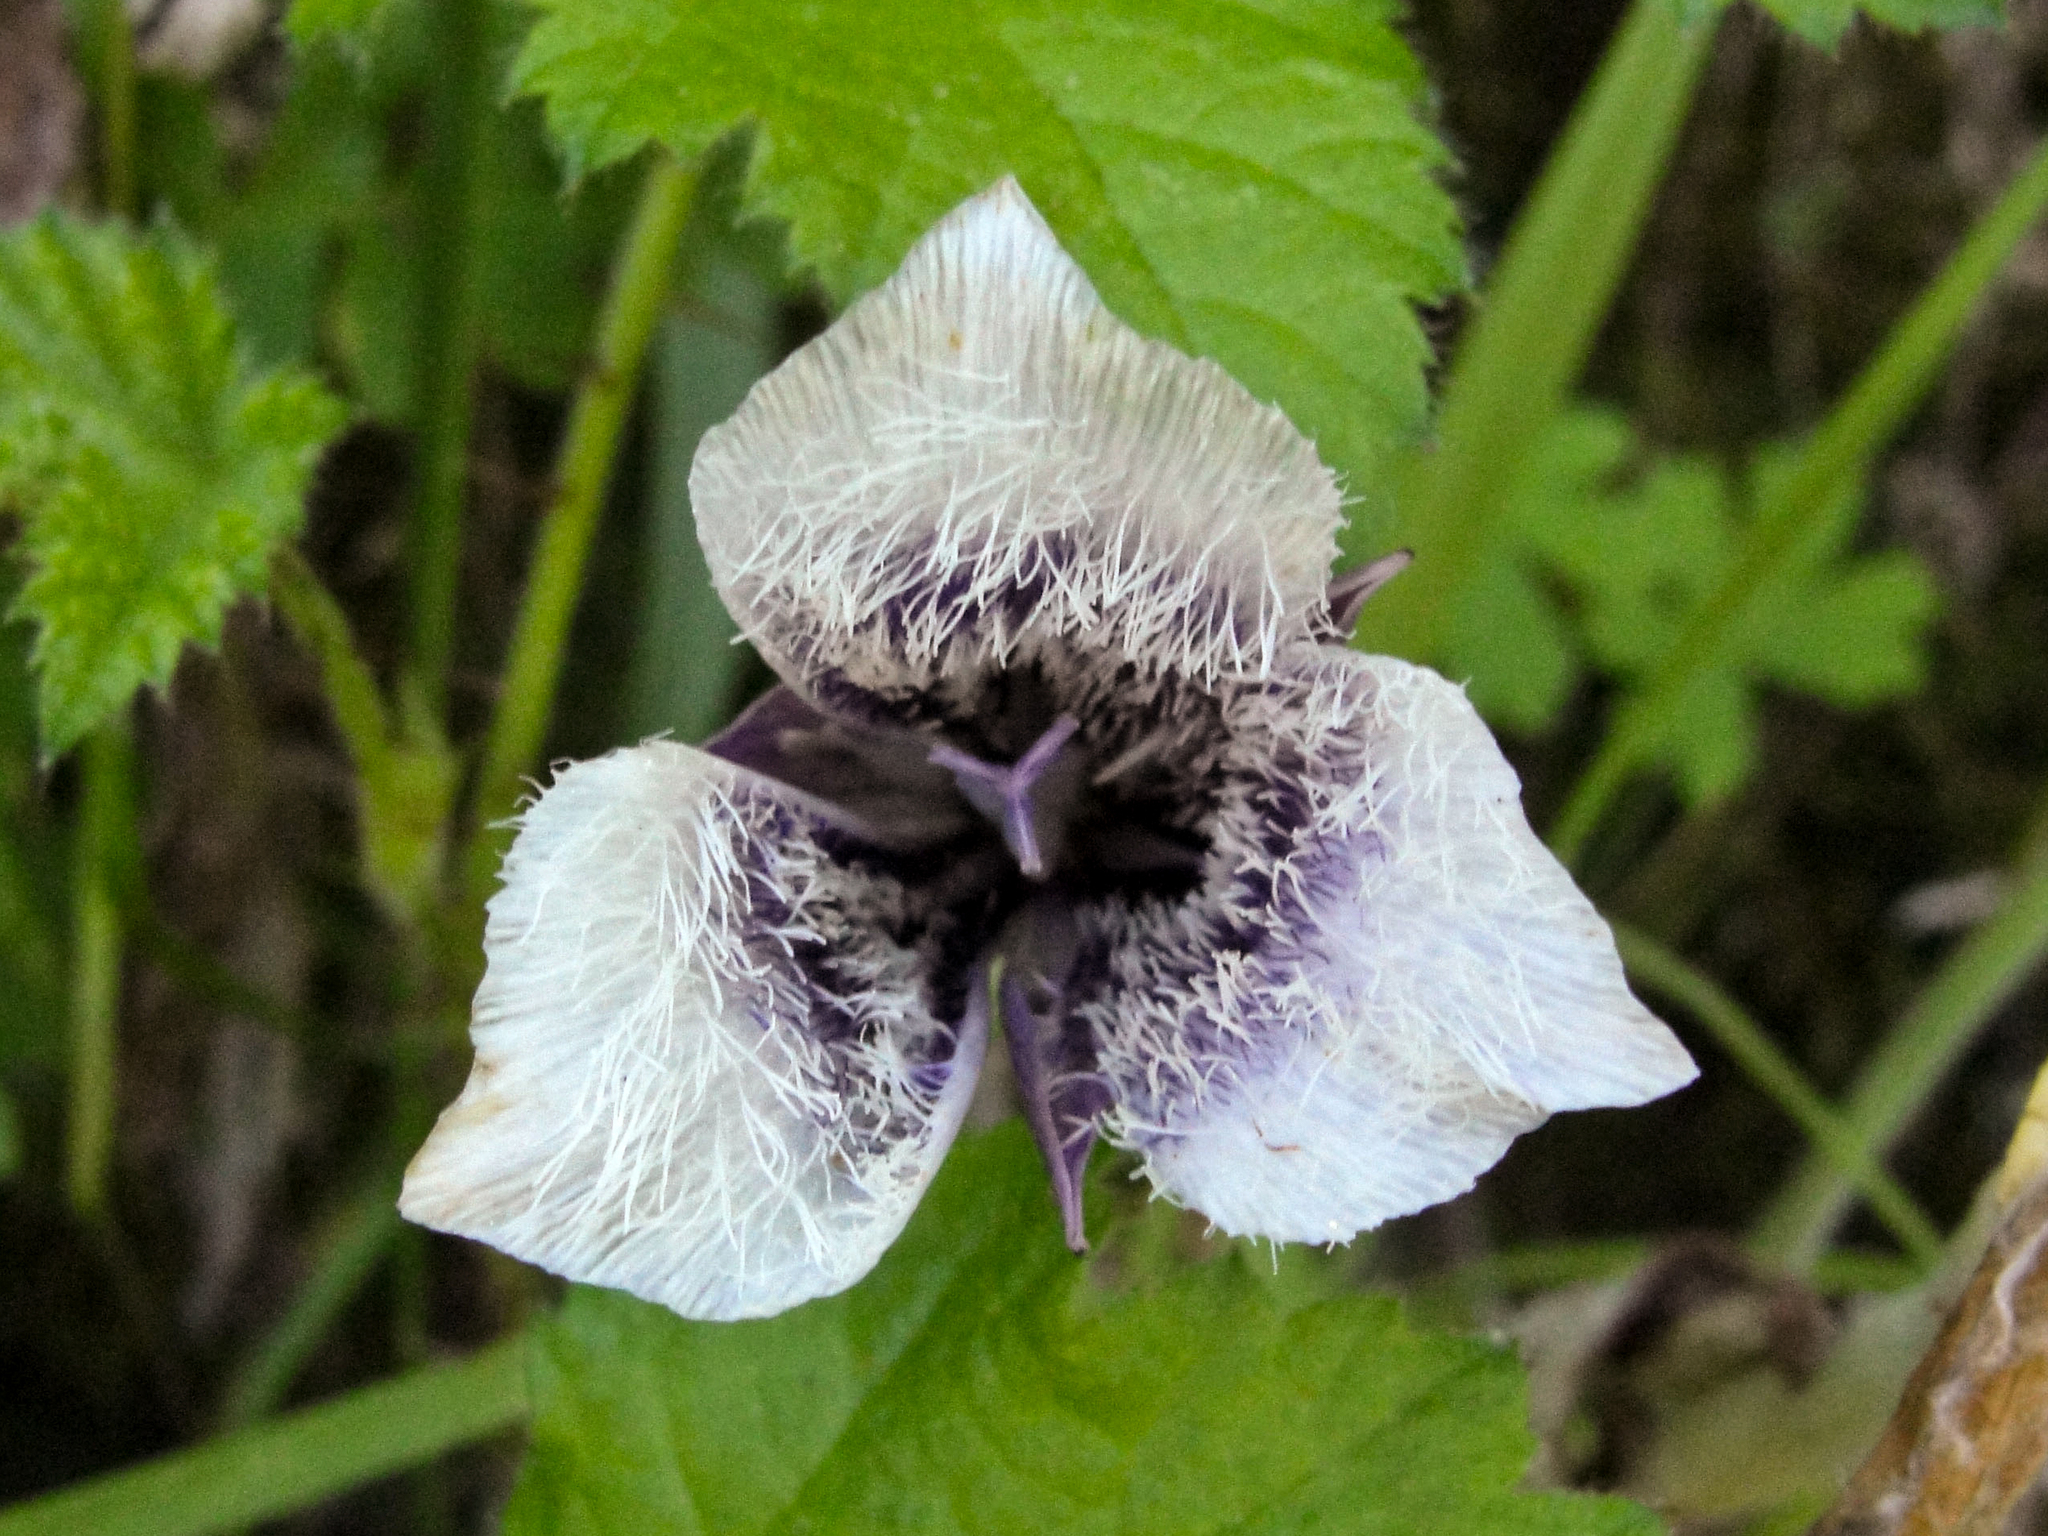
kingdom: Plantae
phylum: Tracheophyta
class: Liliopsida
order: Liliales
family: Liliaceae
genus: Calochortus
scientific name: Calochortus tolmiei
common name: Pussy-ears
